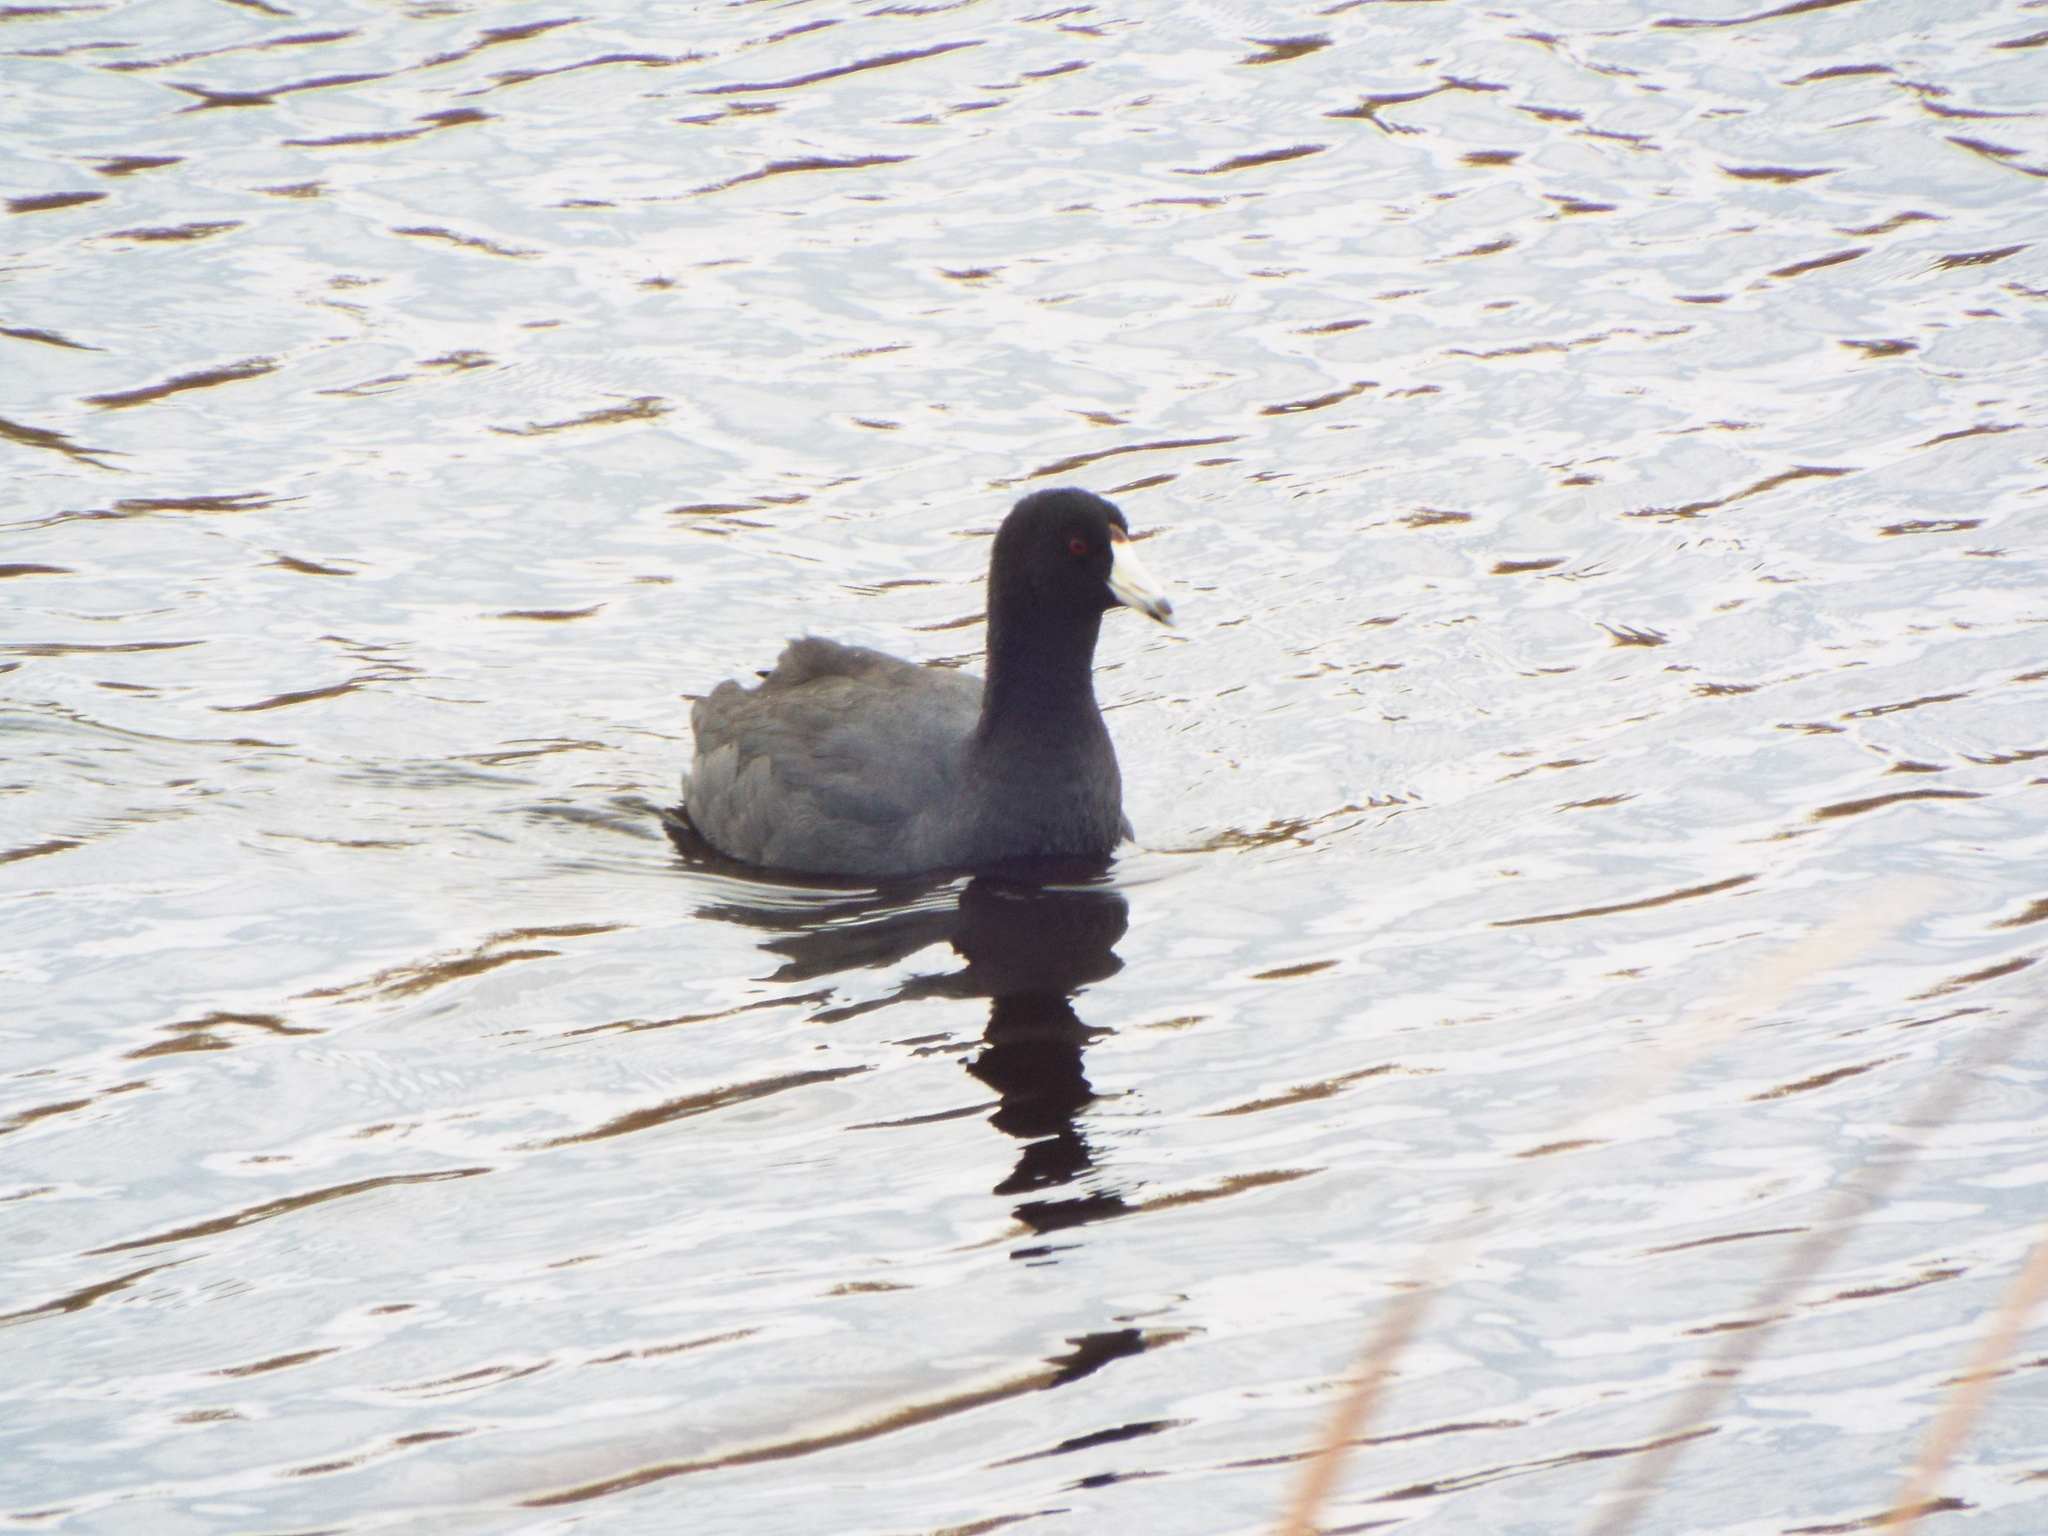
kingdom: Animalia
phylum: Chordata
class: Aves
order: Gruiformes
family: Rallidae
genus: Fulica
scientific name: Fulica americana
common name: American coot
